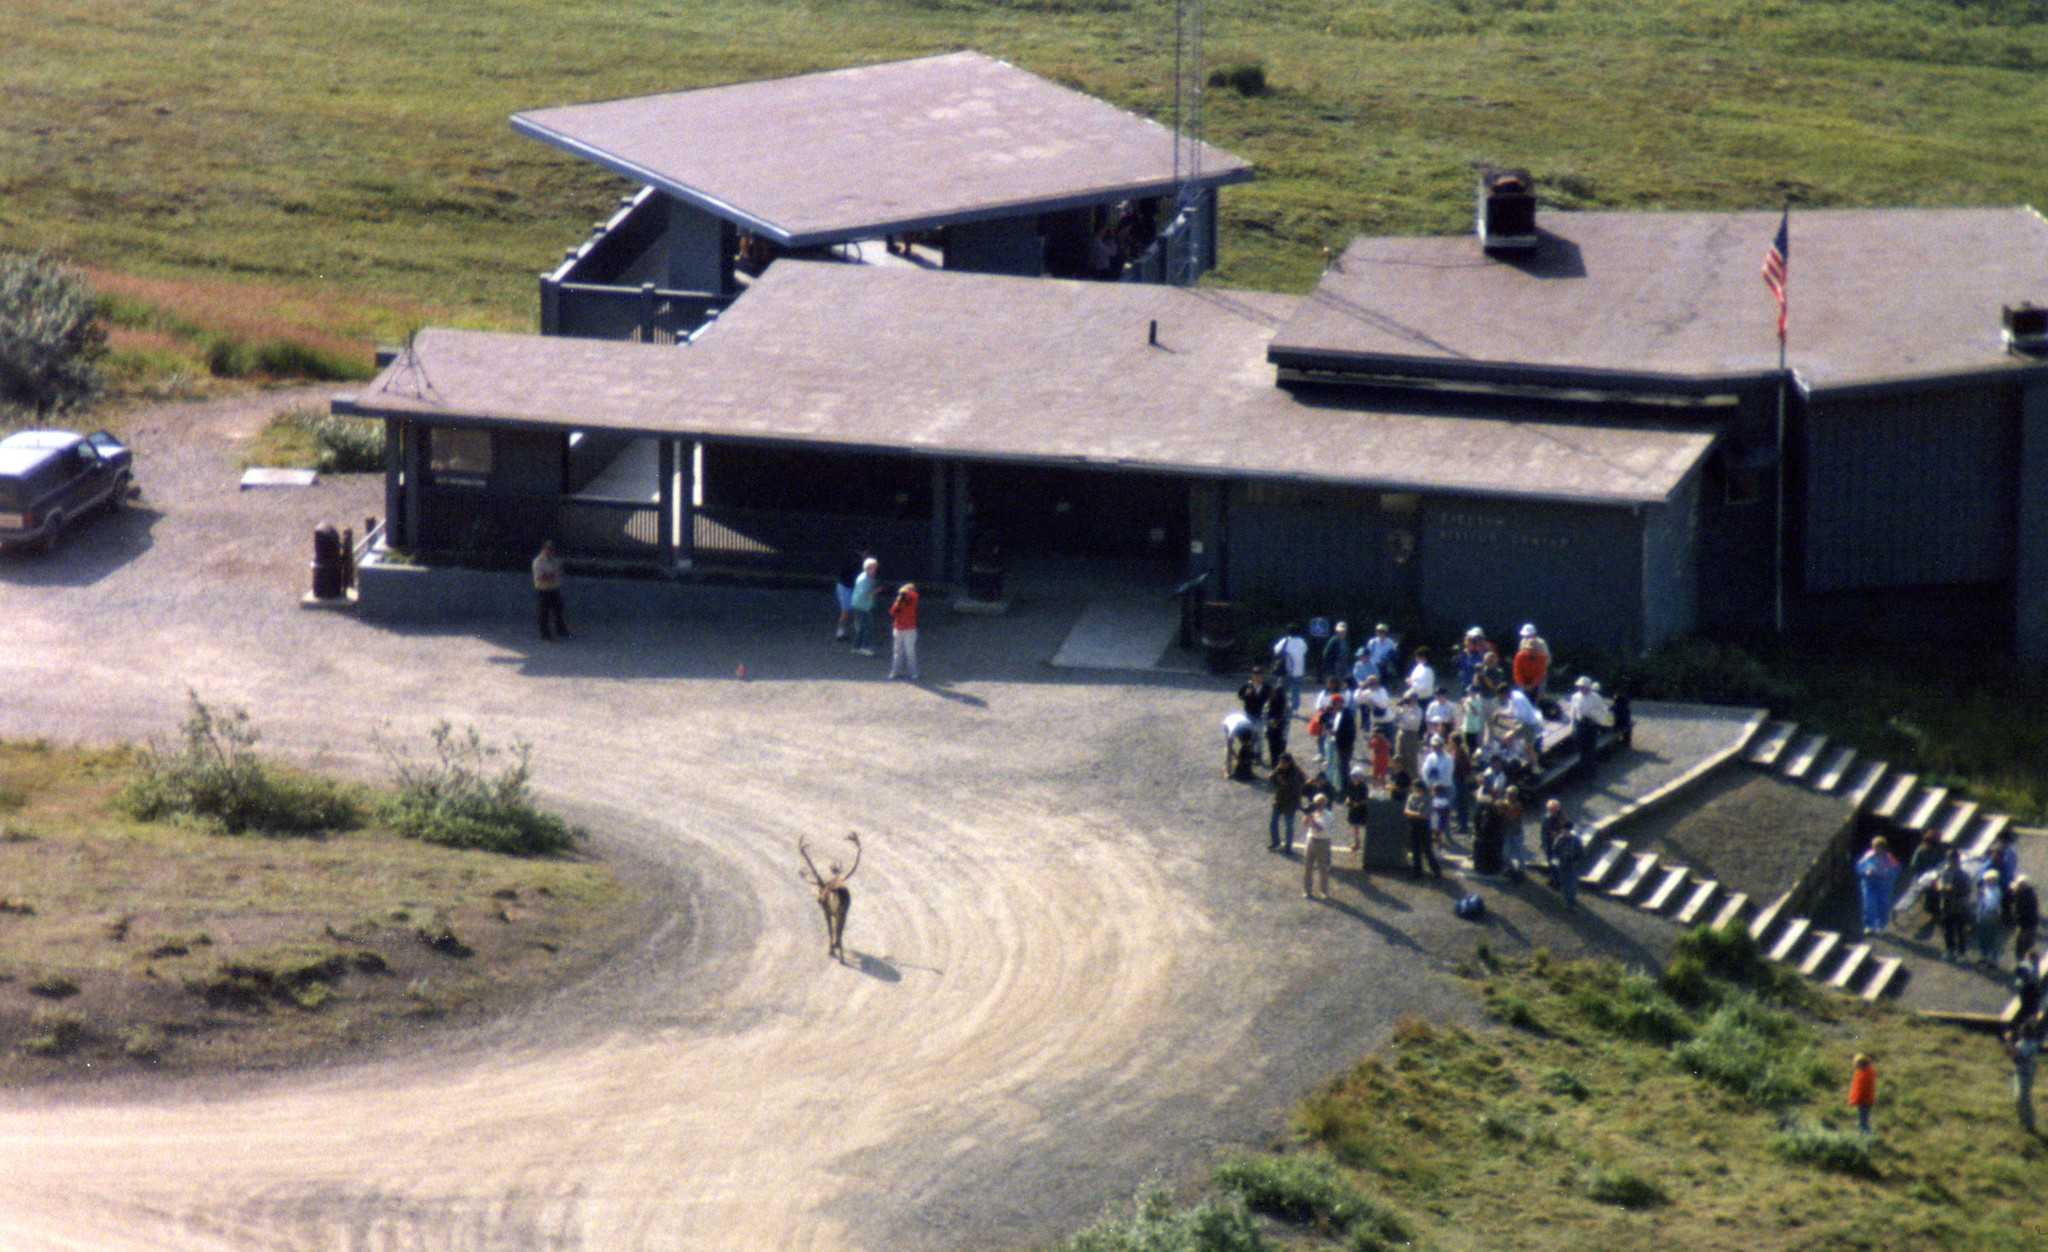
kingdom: Animalia
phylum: Chordata
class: Mammalia
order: Artiodactyla
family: Cervidae
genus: Rangifer
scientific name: Rangifer tarandus
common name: Reindeer
